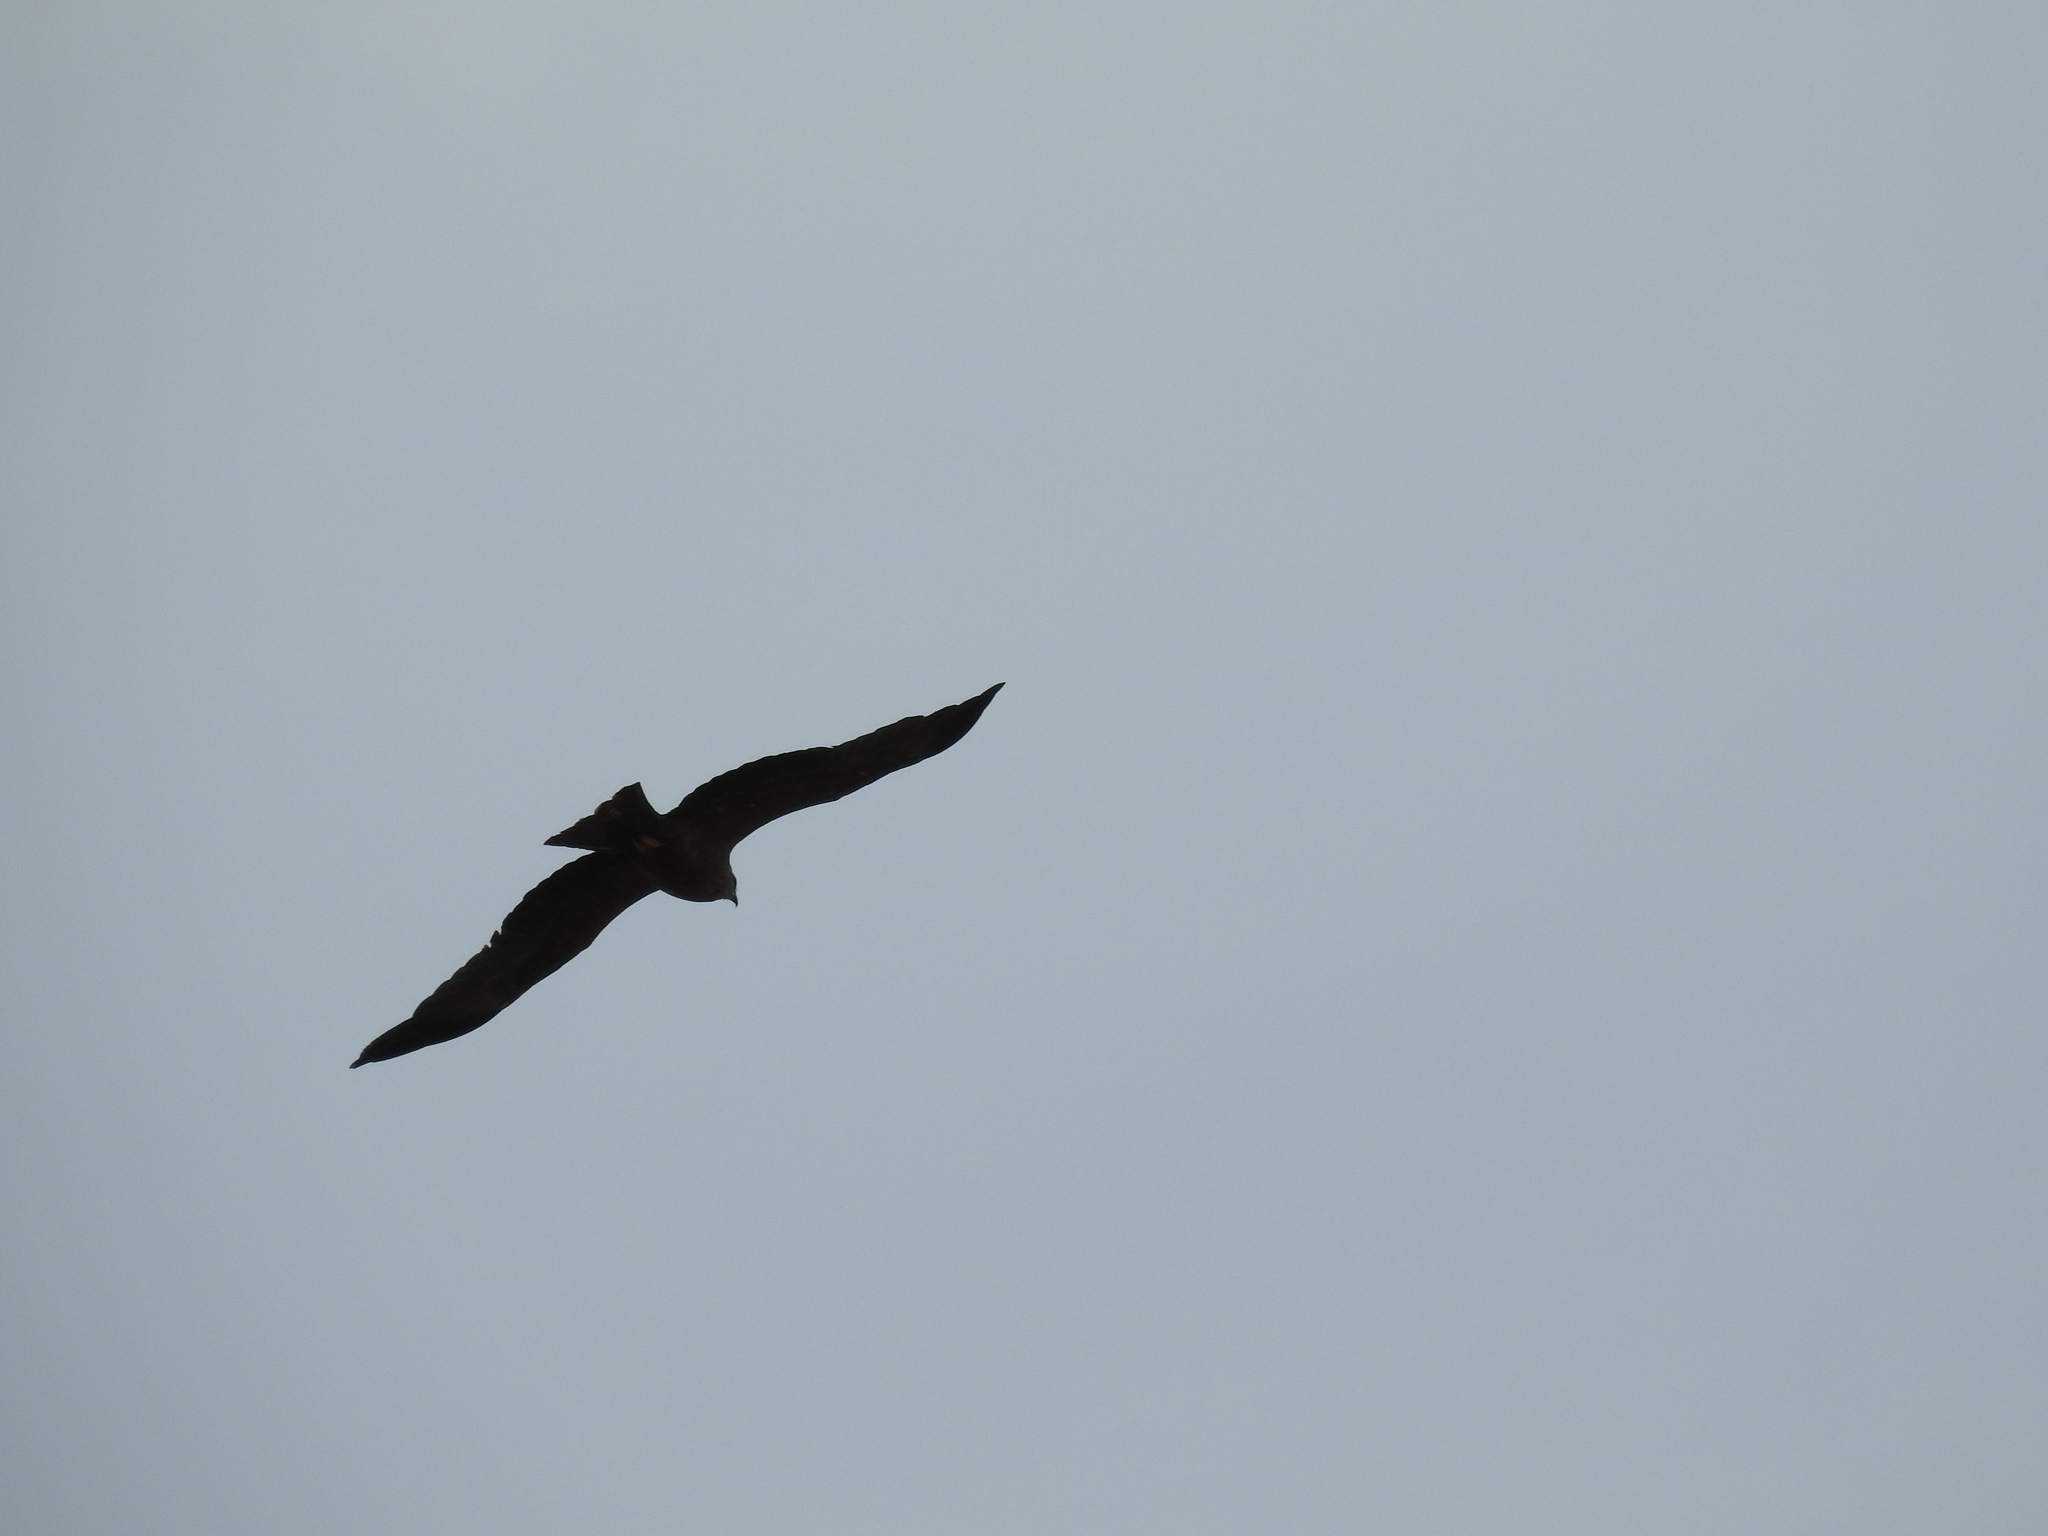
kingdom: Animalia
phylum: Chordata
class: Aves
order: Accipitriformes
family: Accipitridae
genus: Milvus
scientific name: Milvus migrans
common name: Black kite
